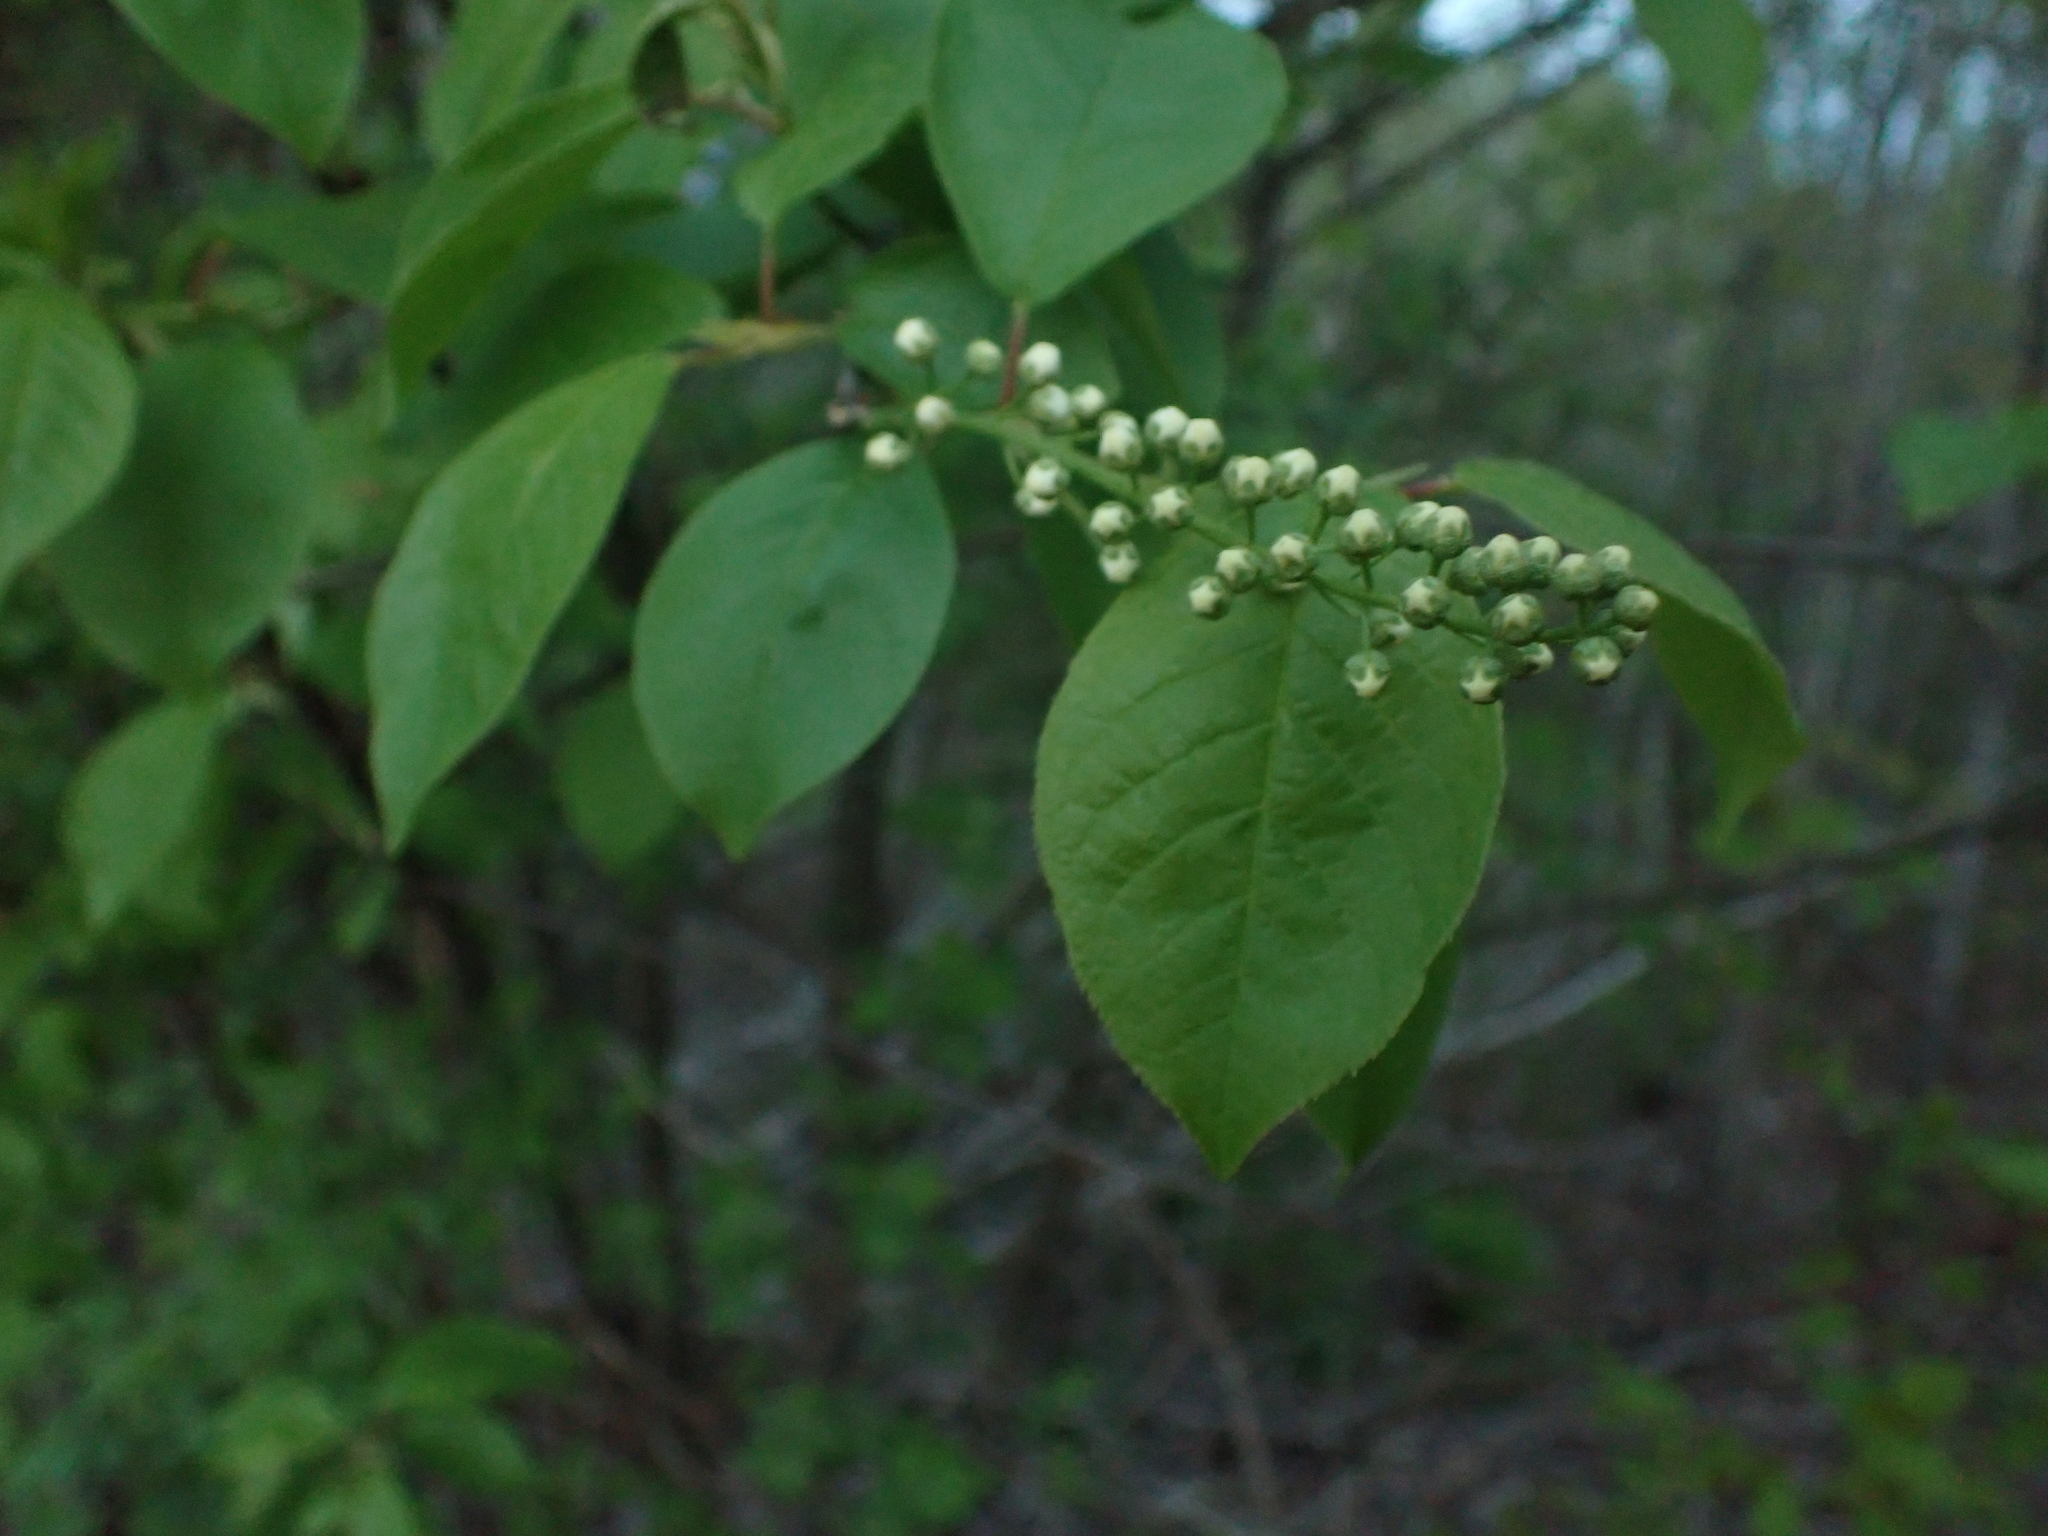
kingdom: Plantae
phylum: Tracheophyta
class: Magnoliopsida
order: Rosales
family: Rosaceae
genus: Prunus
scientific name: Prunus virginiana
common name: Chokecherry
